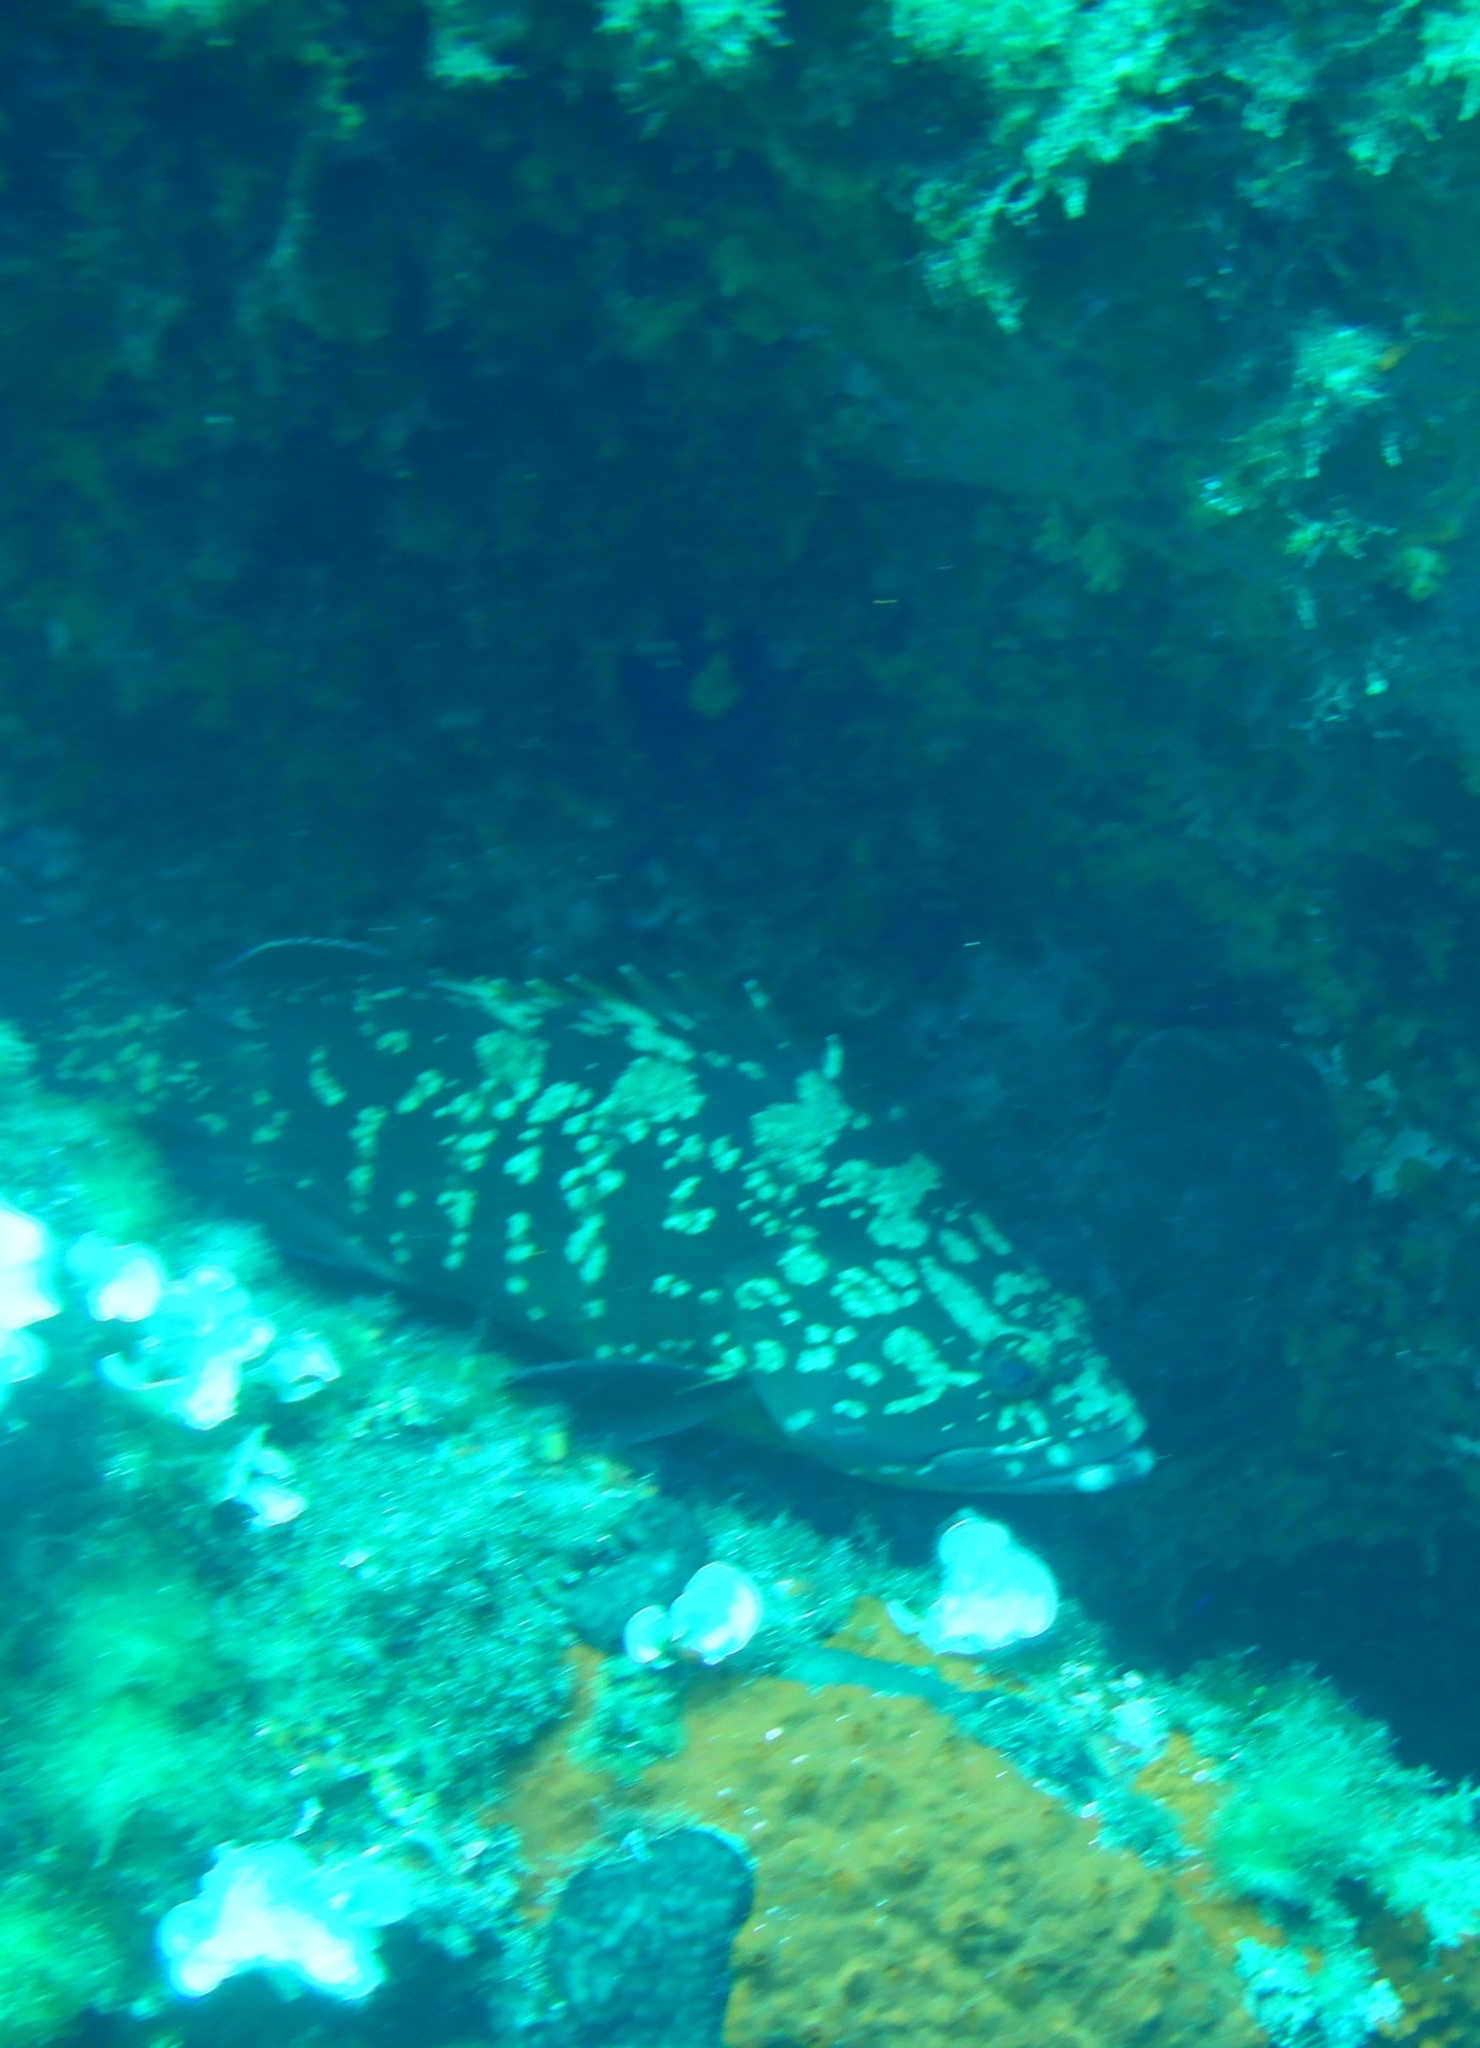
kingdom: Animalia
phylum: Chordata
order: Perciformes
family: Serranidae
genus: Epinephelus
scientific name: Epinephelus marginatus
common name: Dusky grouper
